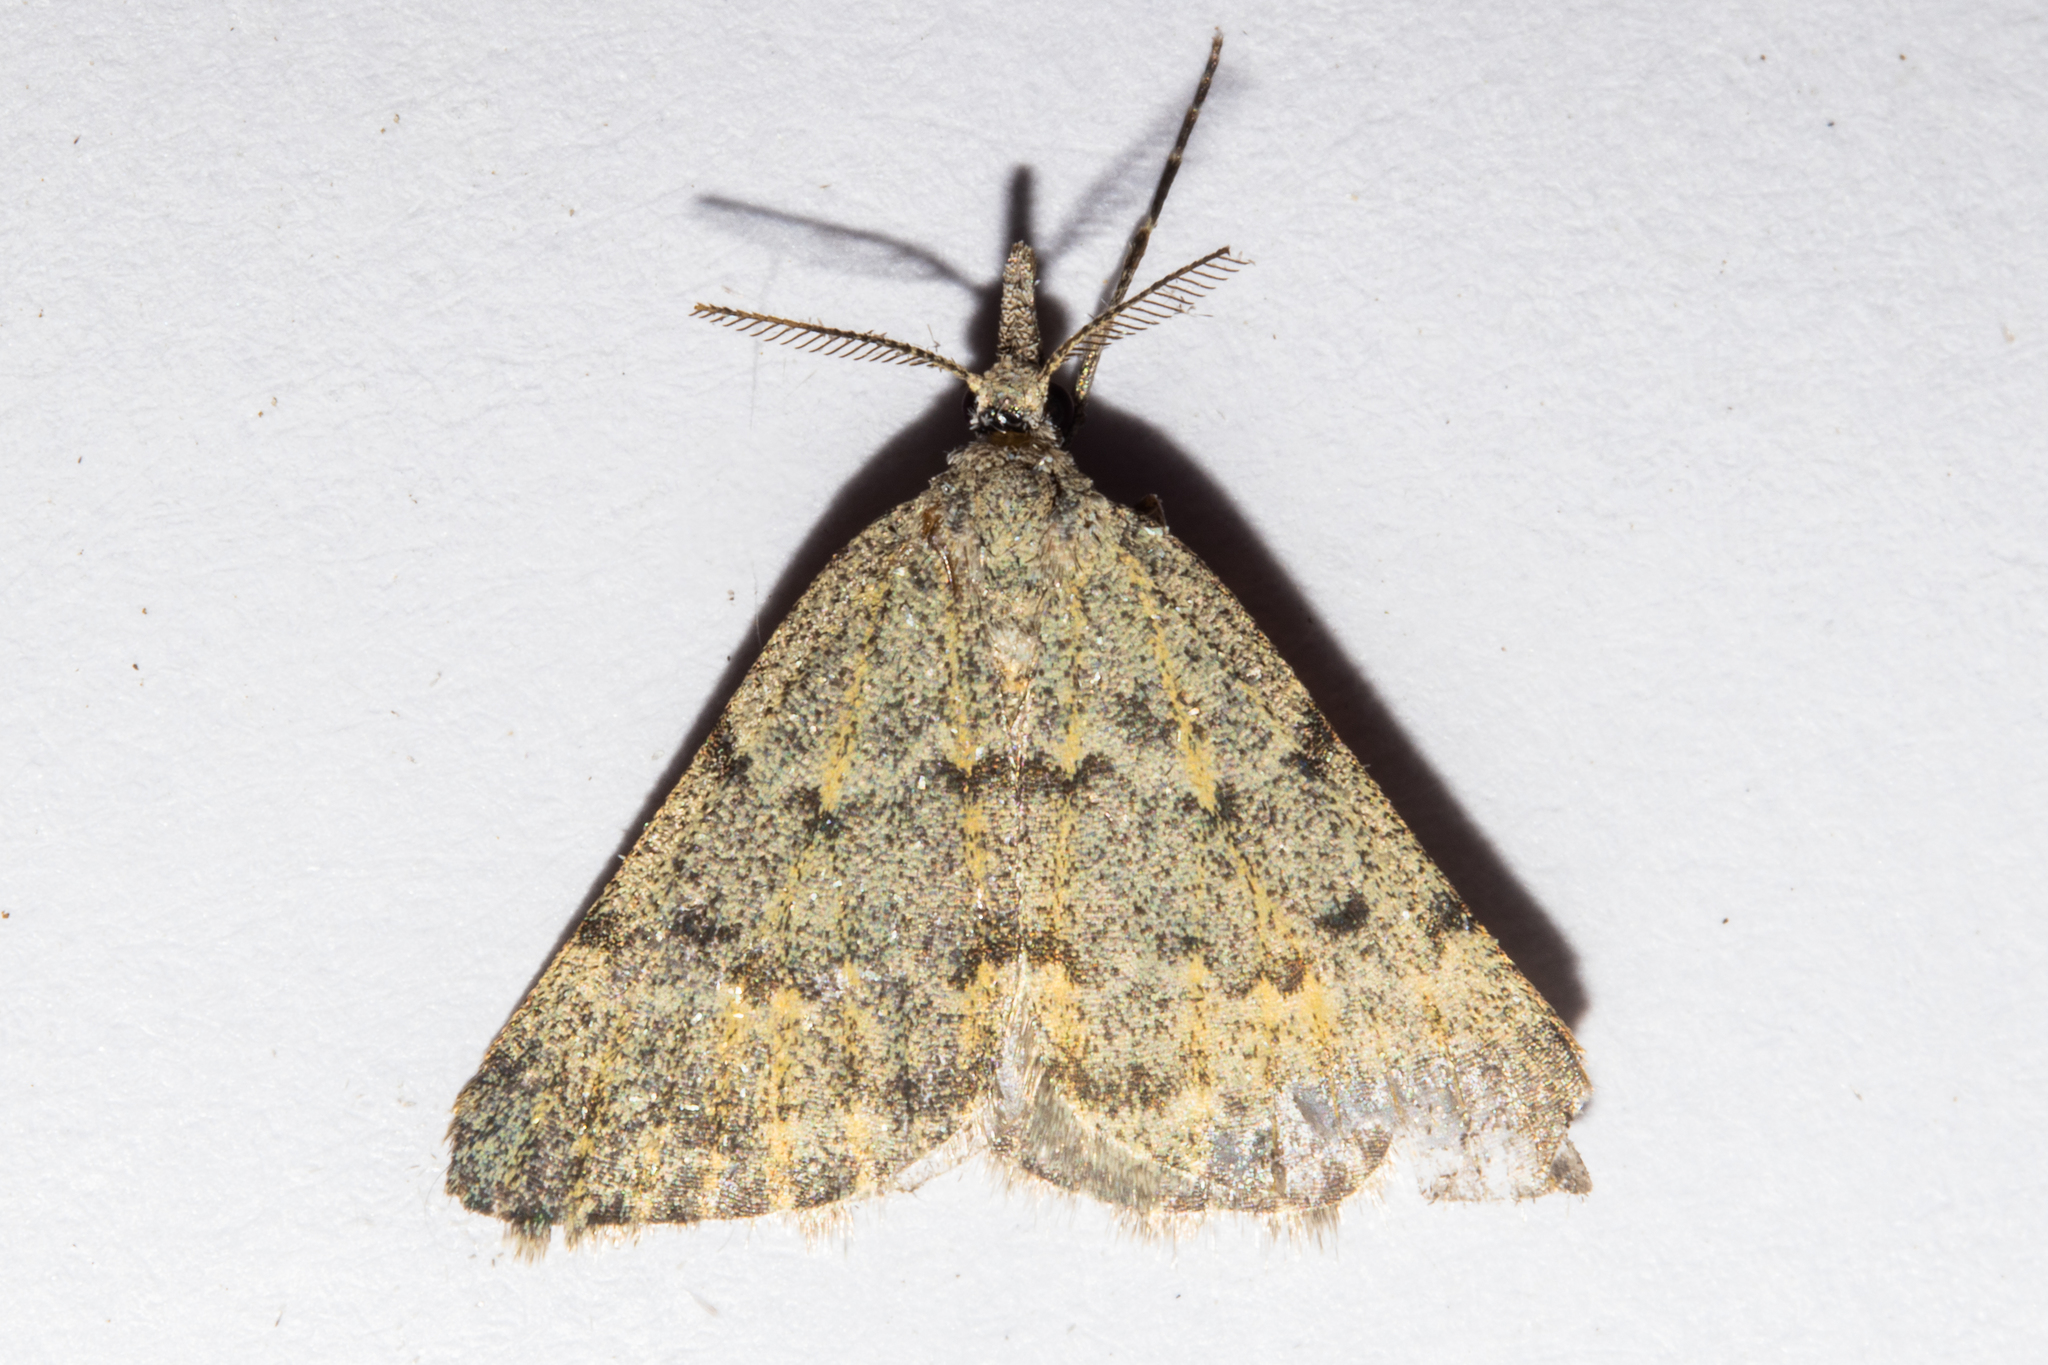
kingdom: Animalia
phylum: Arthropoda
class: Insecta
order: Lepidoptera
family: Geometridae
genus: Dichromodes
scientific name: Dichromodes sphaeriata
